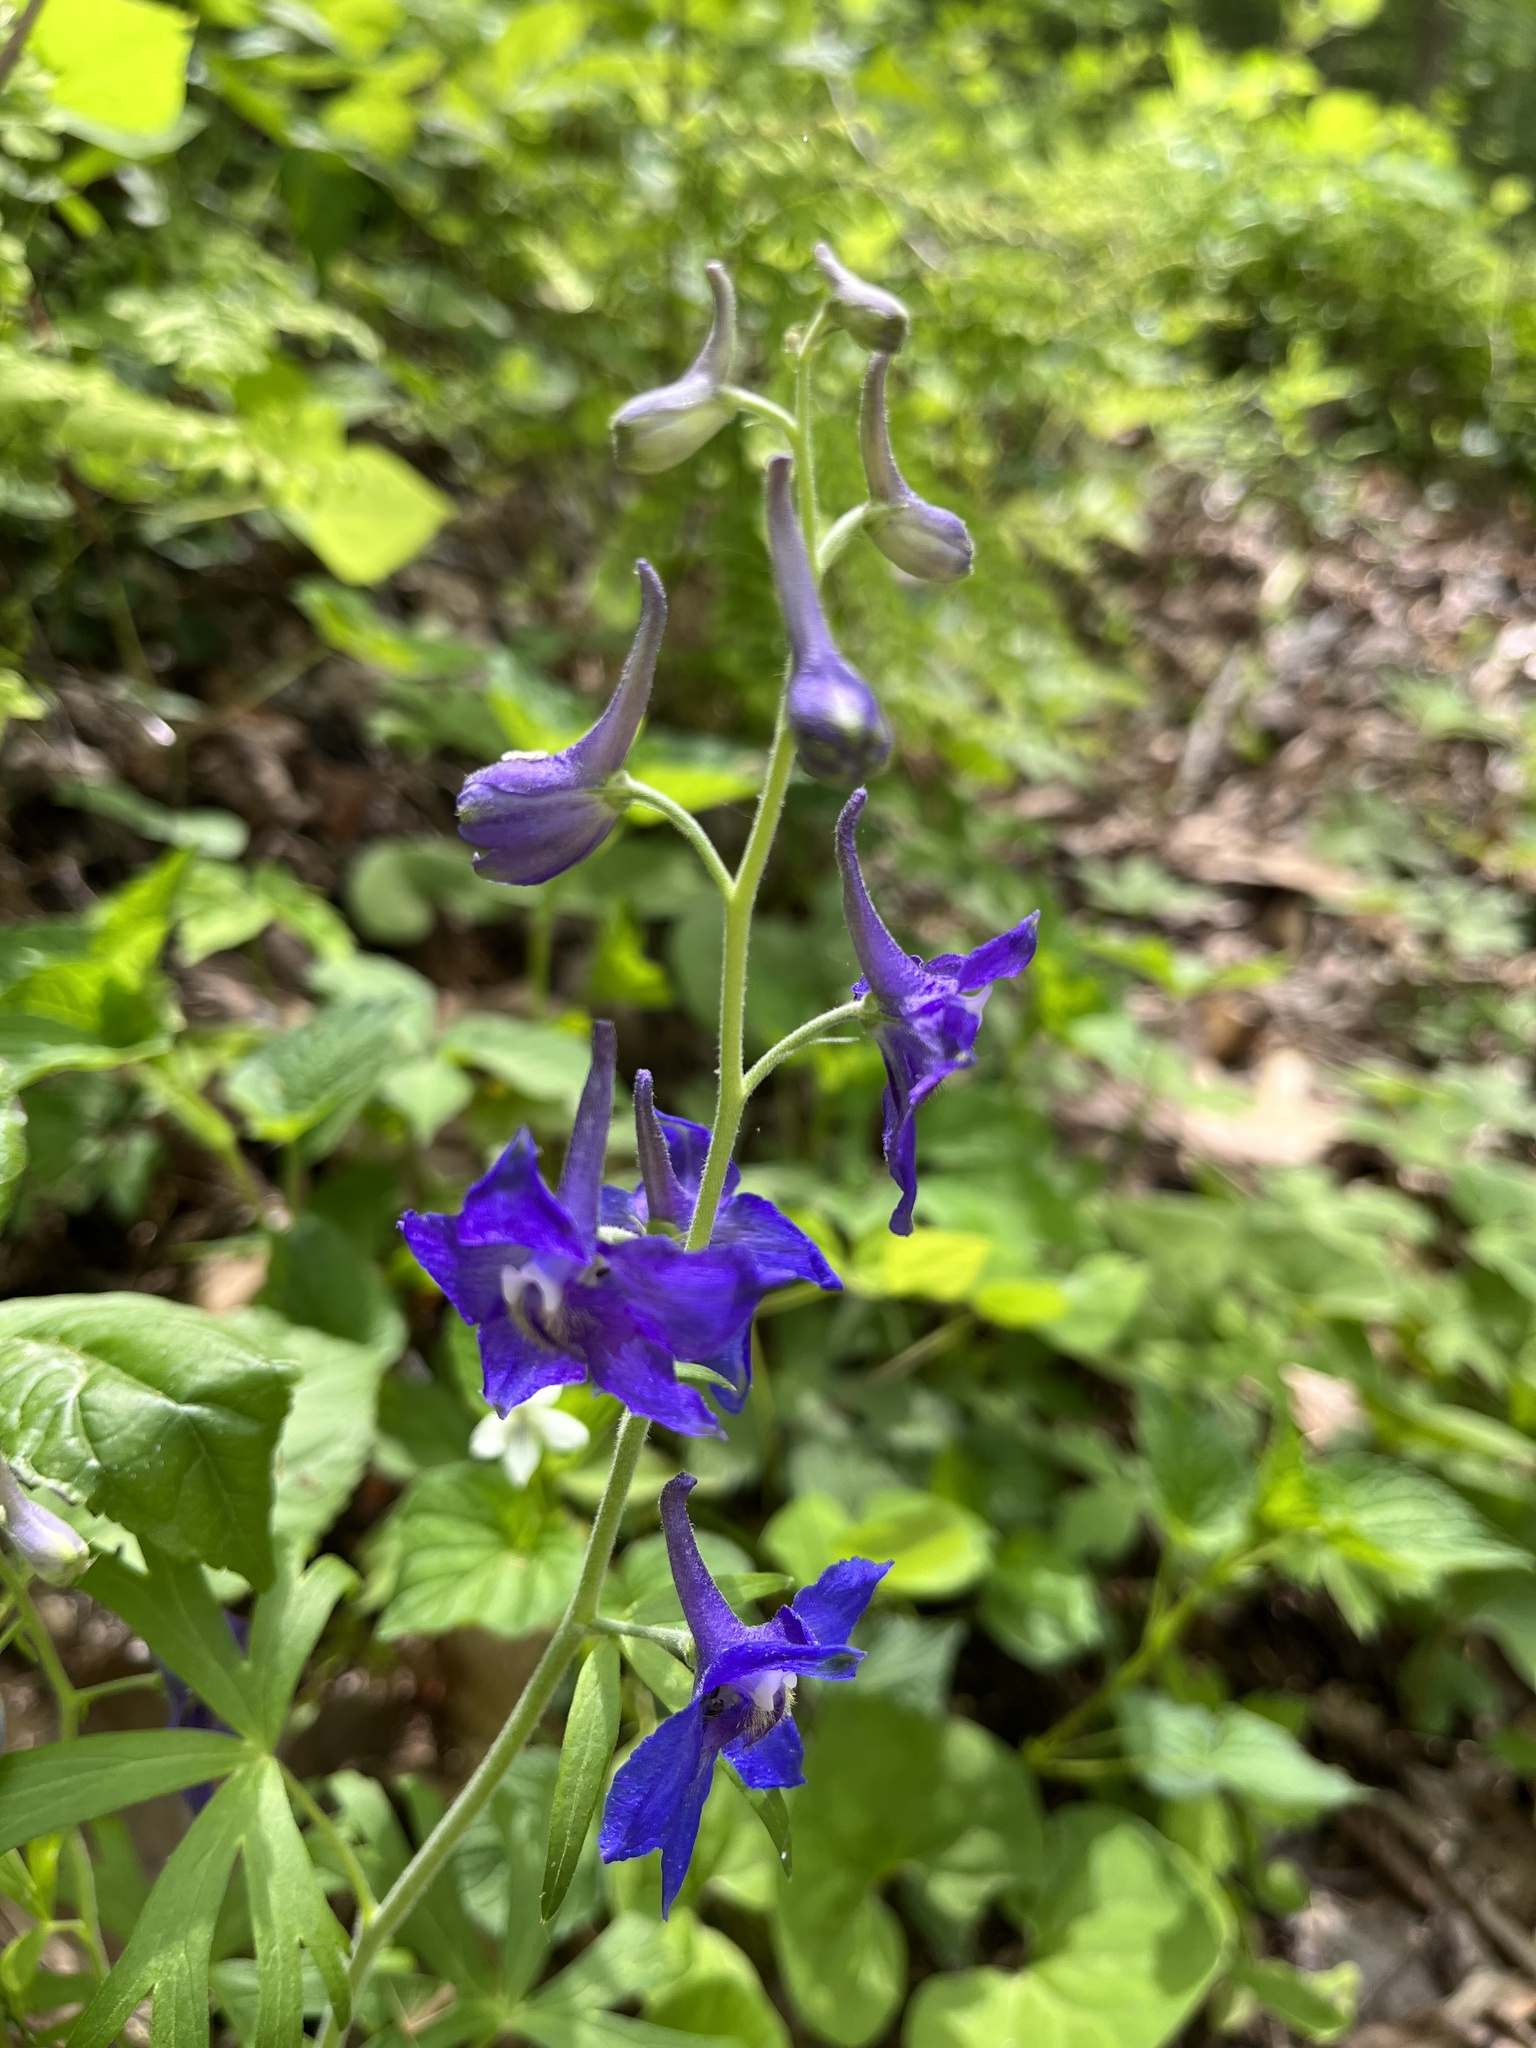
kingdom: Plantae
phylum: Tracheophyta
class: Magnoliopsida
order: Ranunculales
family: Ranunculaceae
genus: Delphinium
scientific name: Delphinium tricorne
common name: Dwarf larkspur
